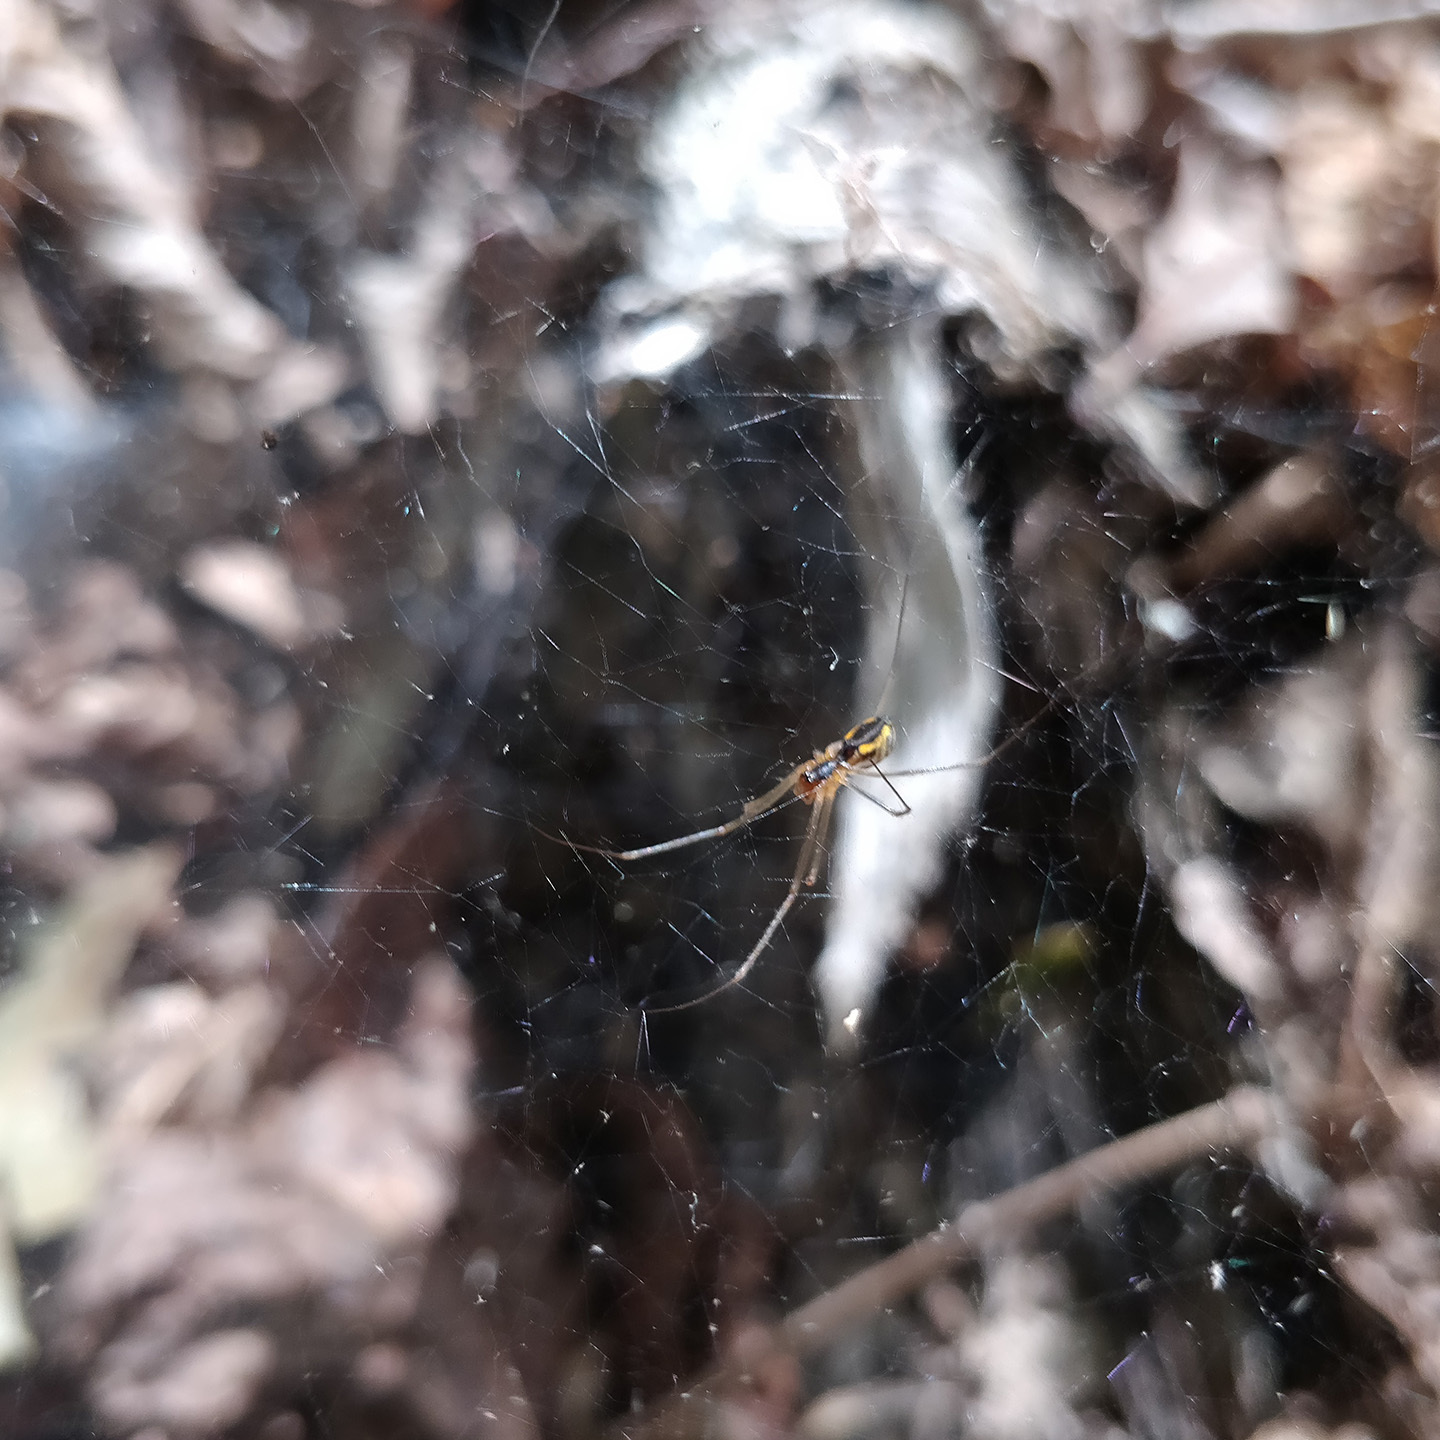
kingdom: Animalia
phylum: Arthropoda
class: Arachnida
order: Araneae
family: Linyphiidae
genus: Neriene
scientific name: Neriene radiata
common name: Filmy dome spider
